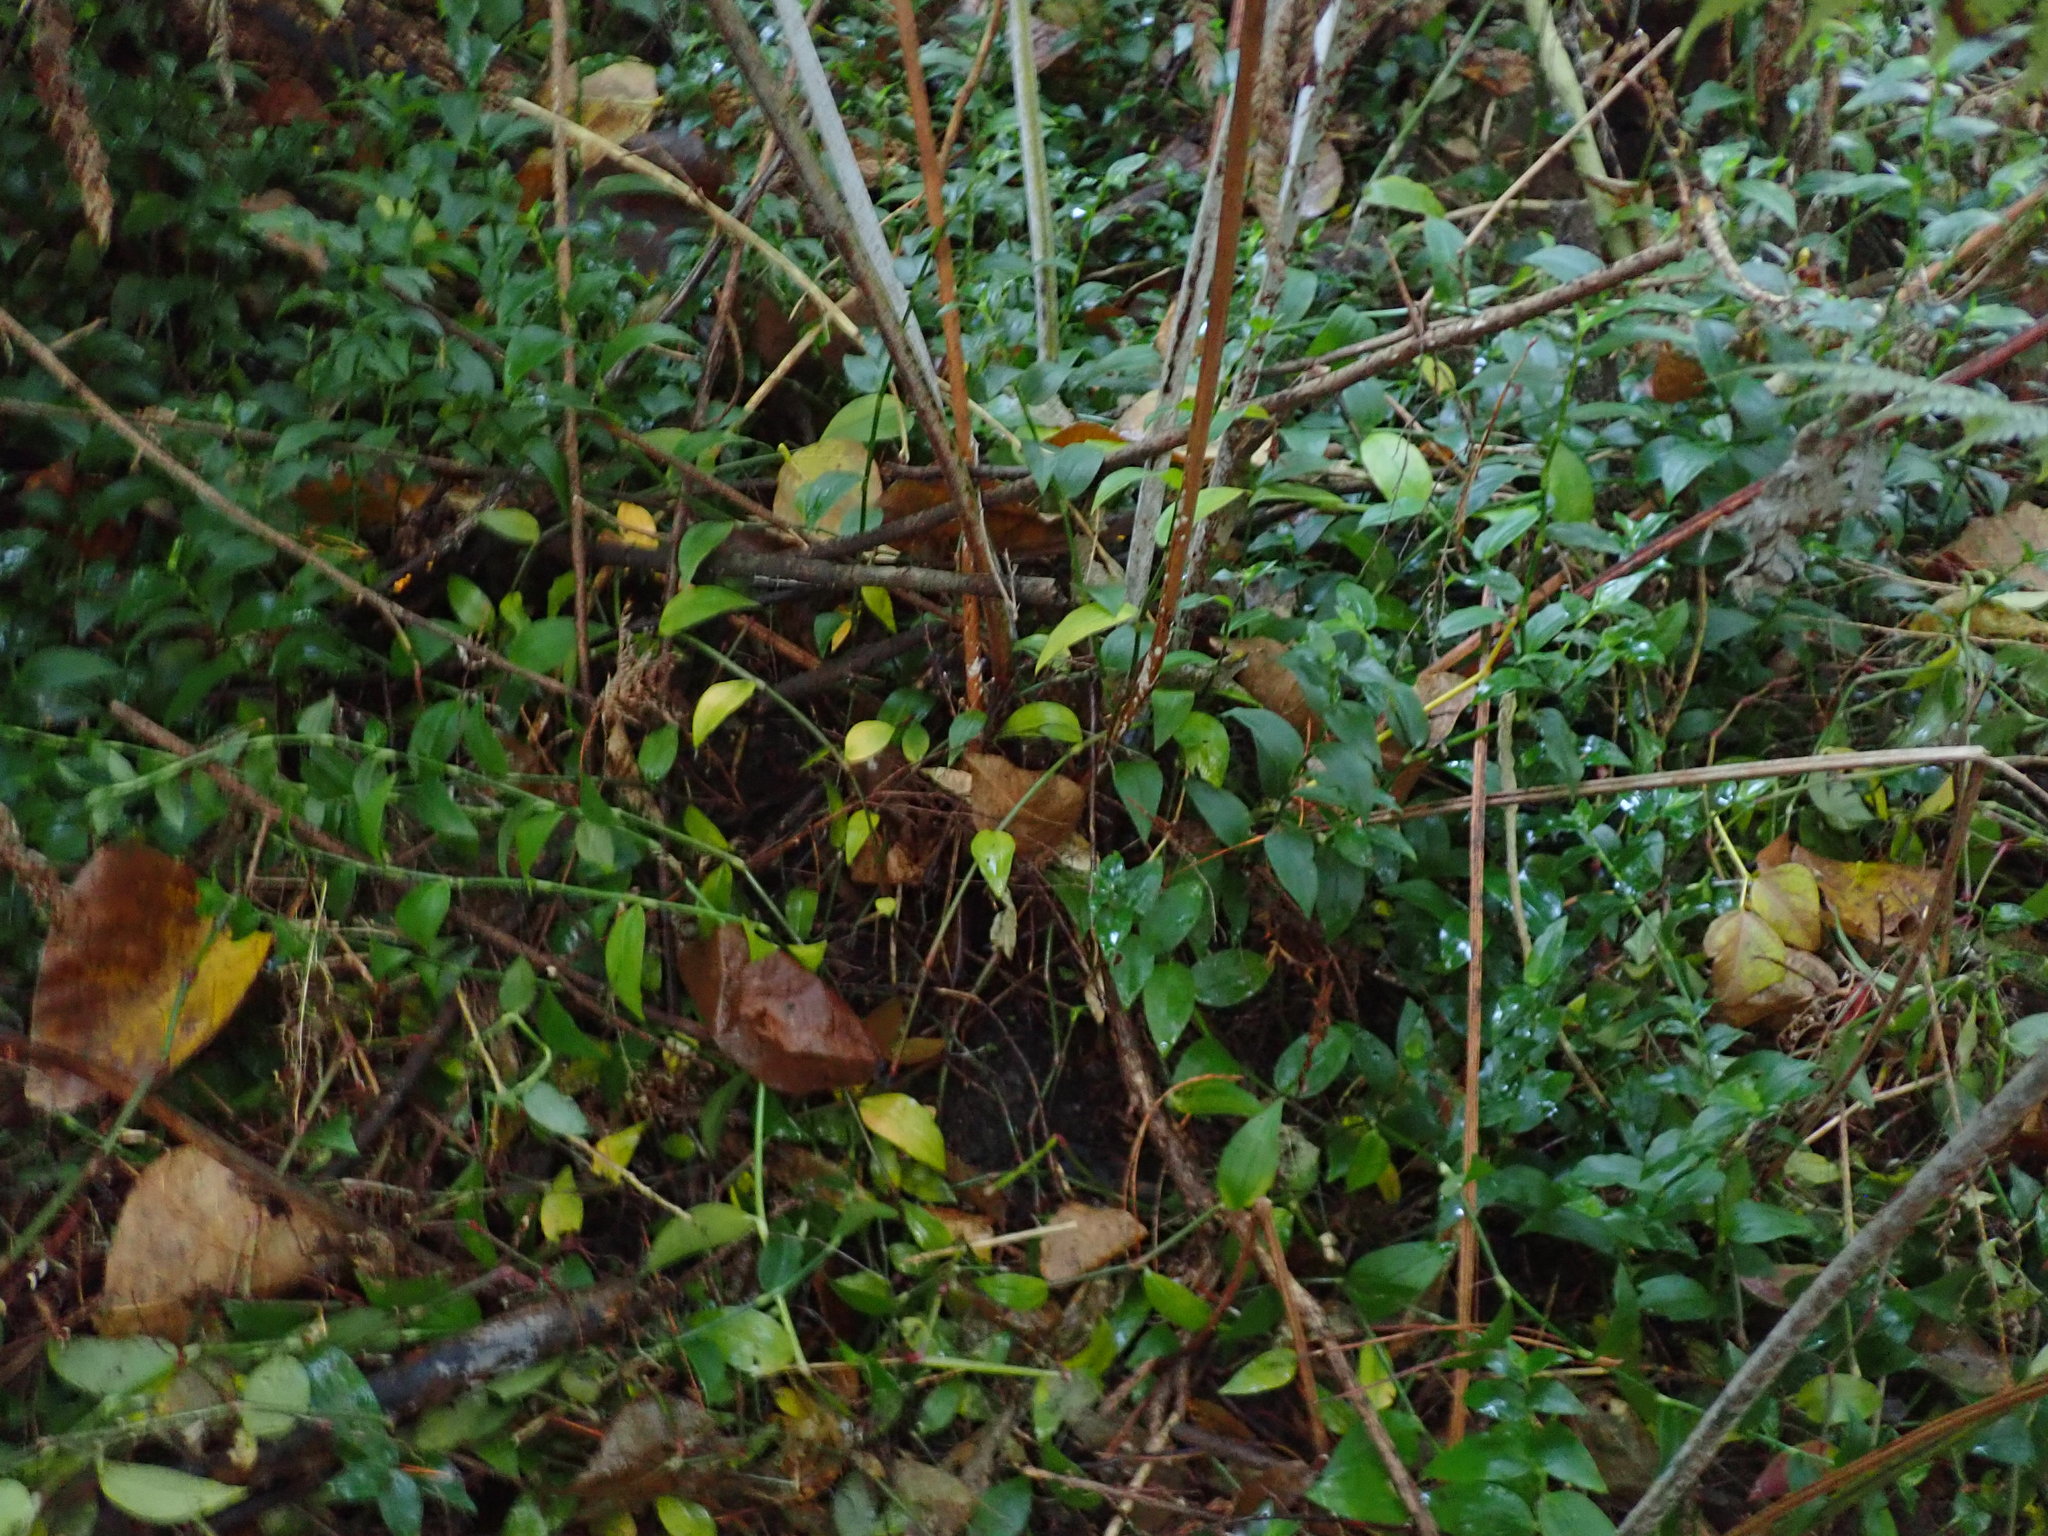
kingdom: Plantae
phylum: Tracheophyta
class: Liliopsida
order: Commelinales
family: Commelinaceae
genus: Tradescantia
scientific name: Tradescantia fluminensis
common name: Wandering-jew
